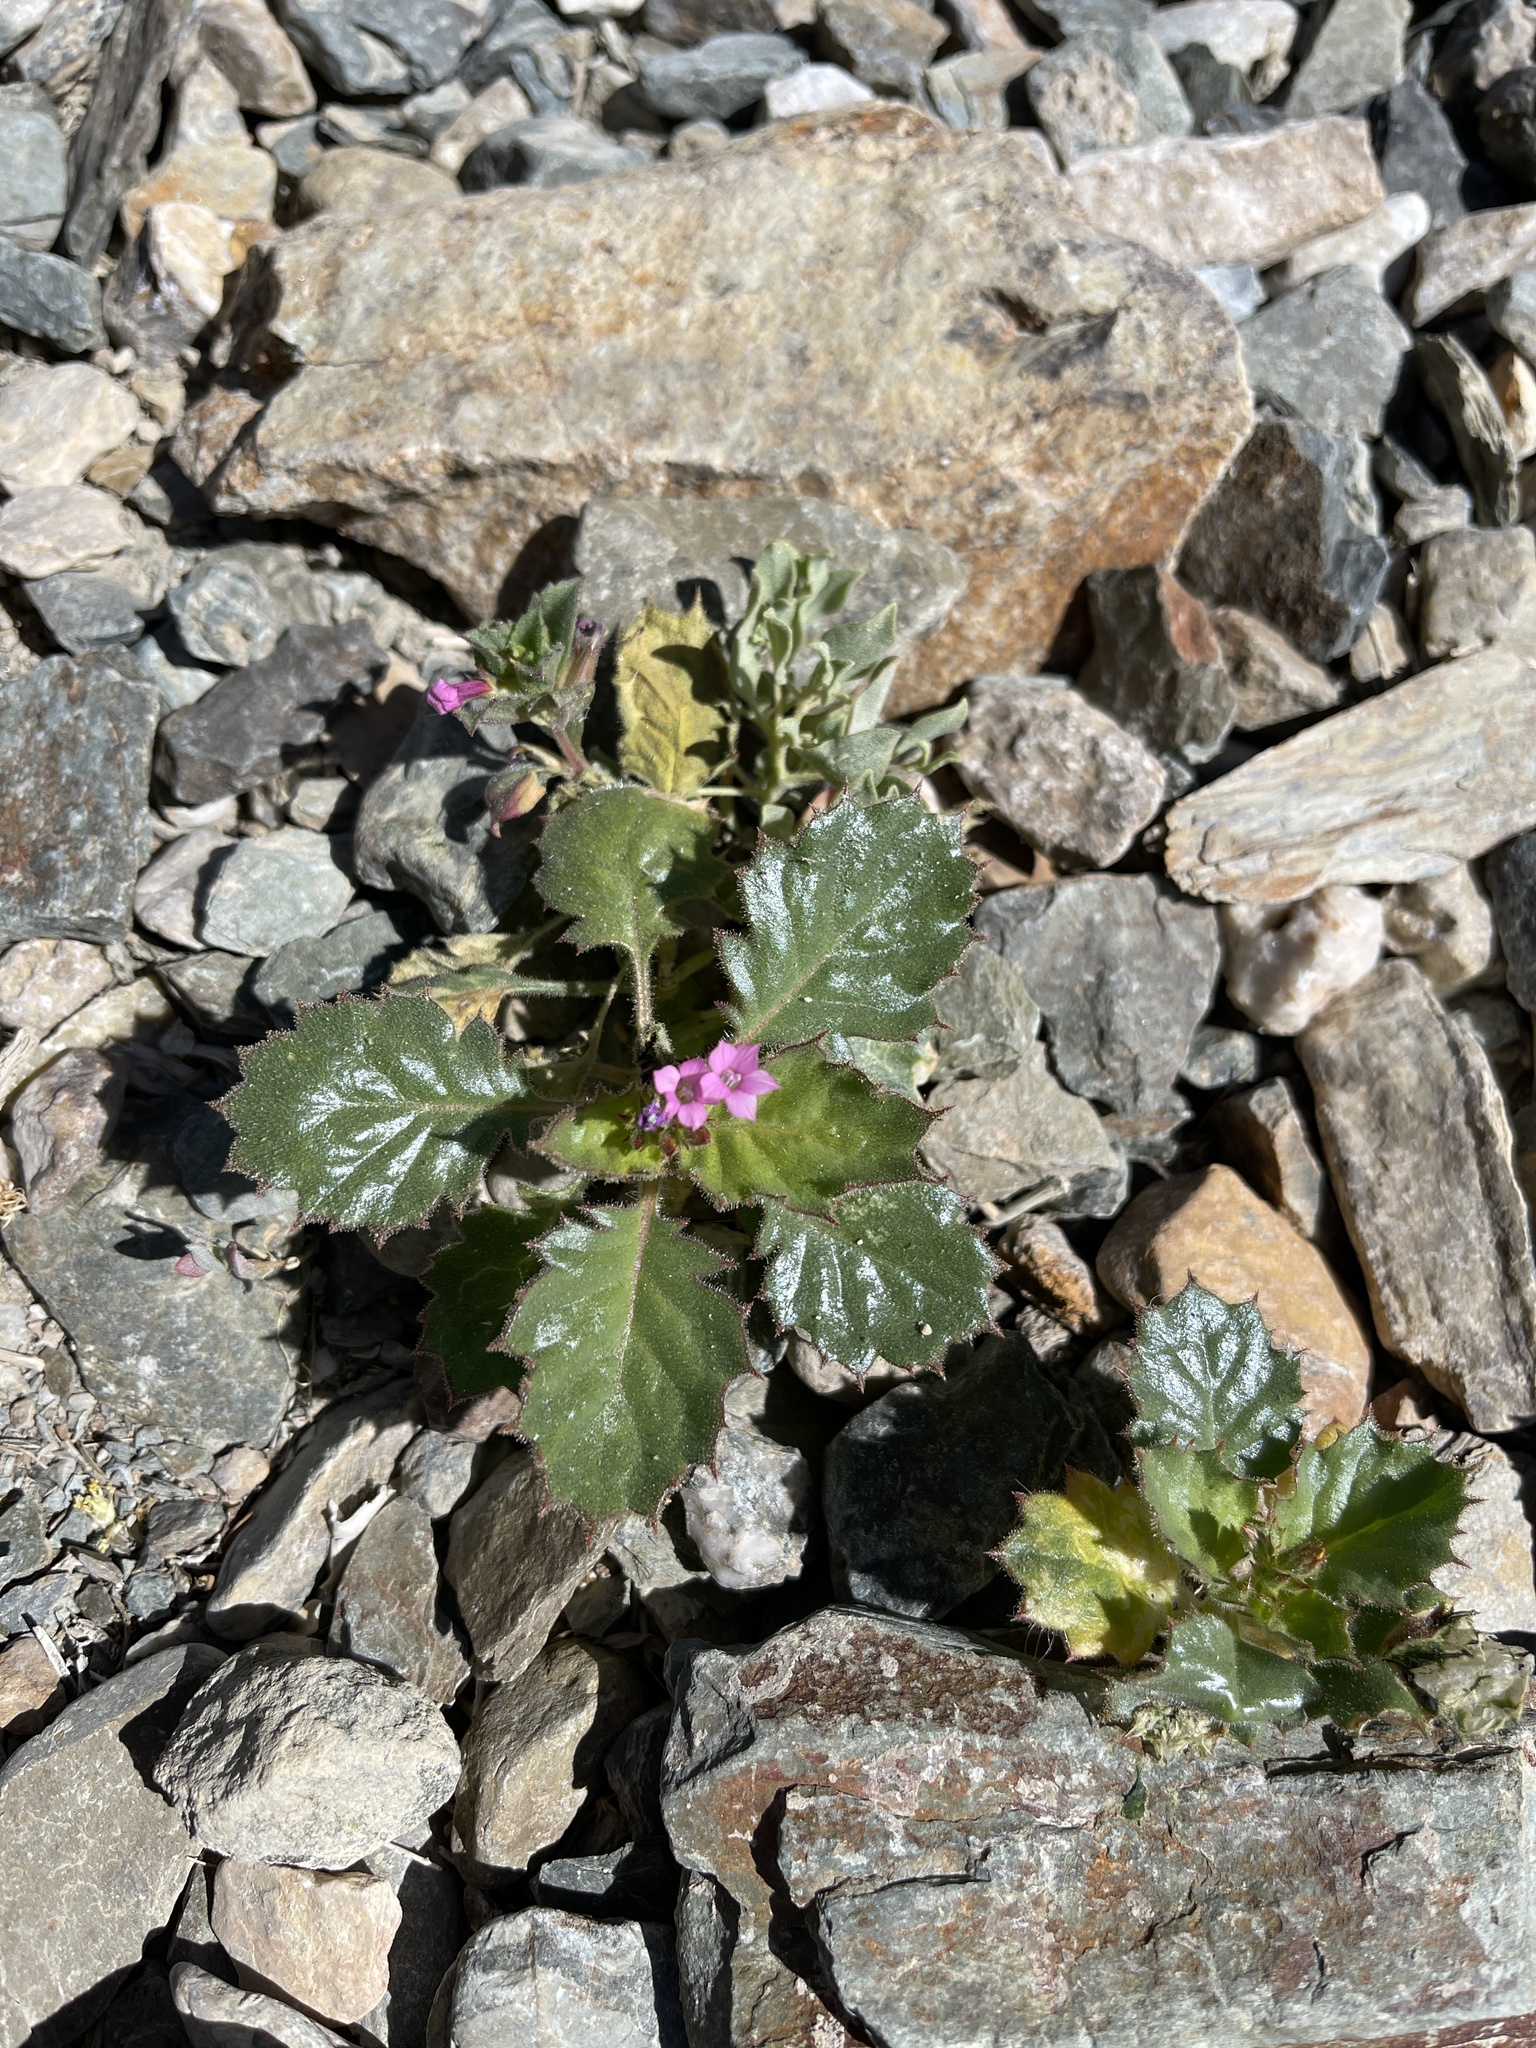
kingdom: Plantae
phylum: Tracheophyta
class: Magnoliopsida
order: Ericales
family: Polemoniaceae
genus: Aliciella
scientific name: Aliciella latifolia
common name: Broad-leaf gilia
